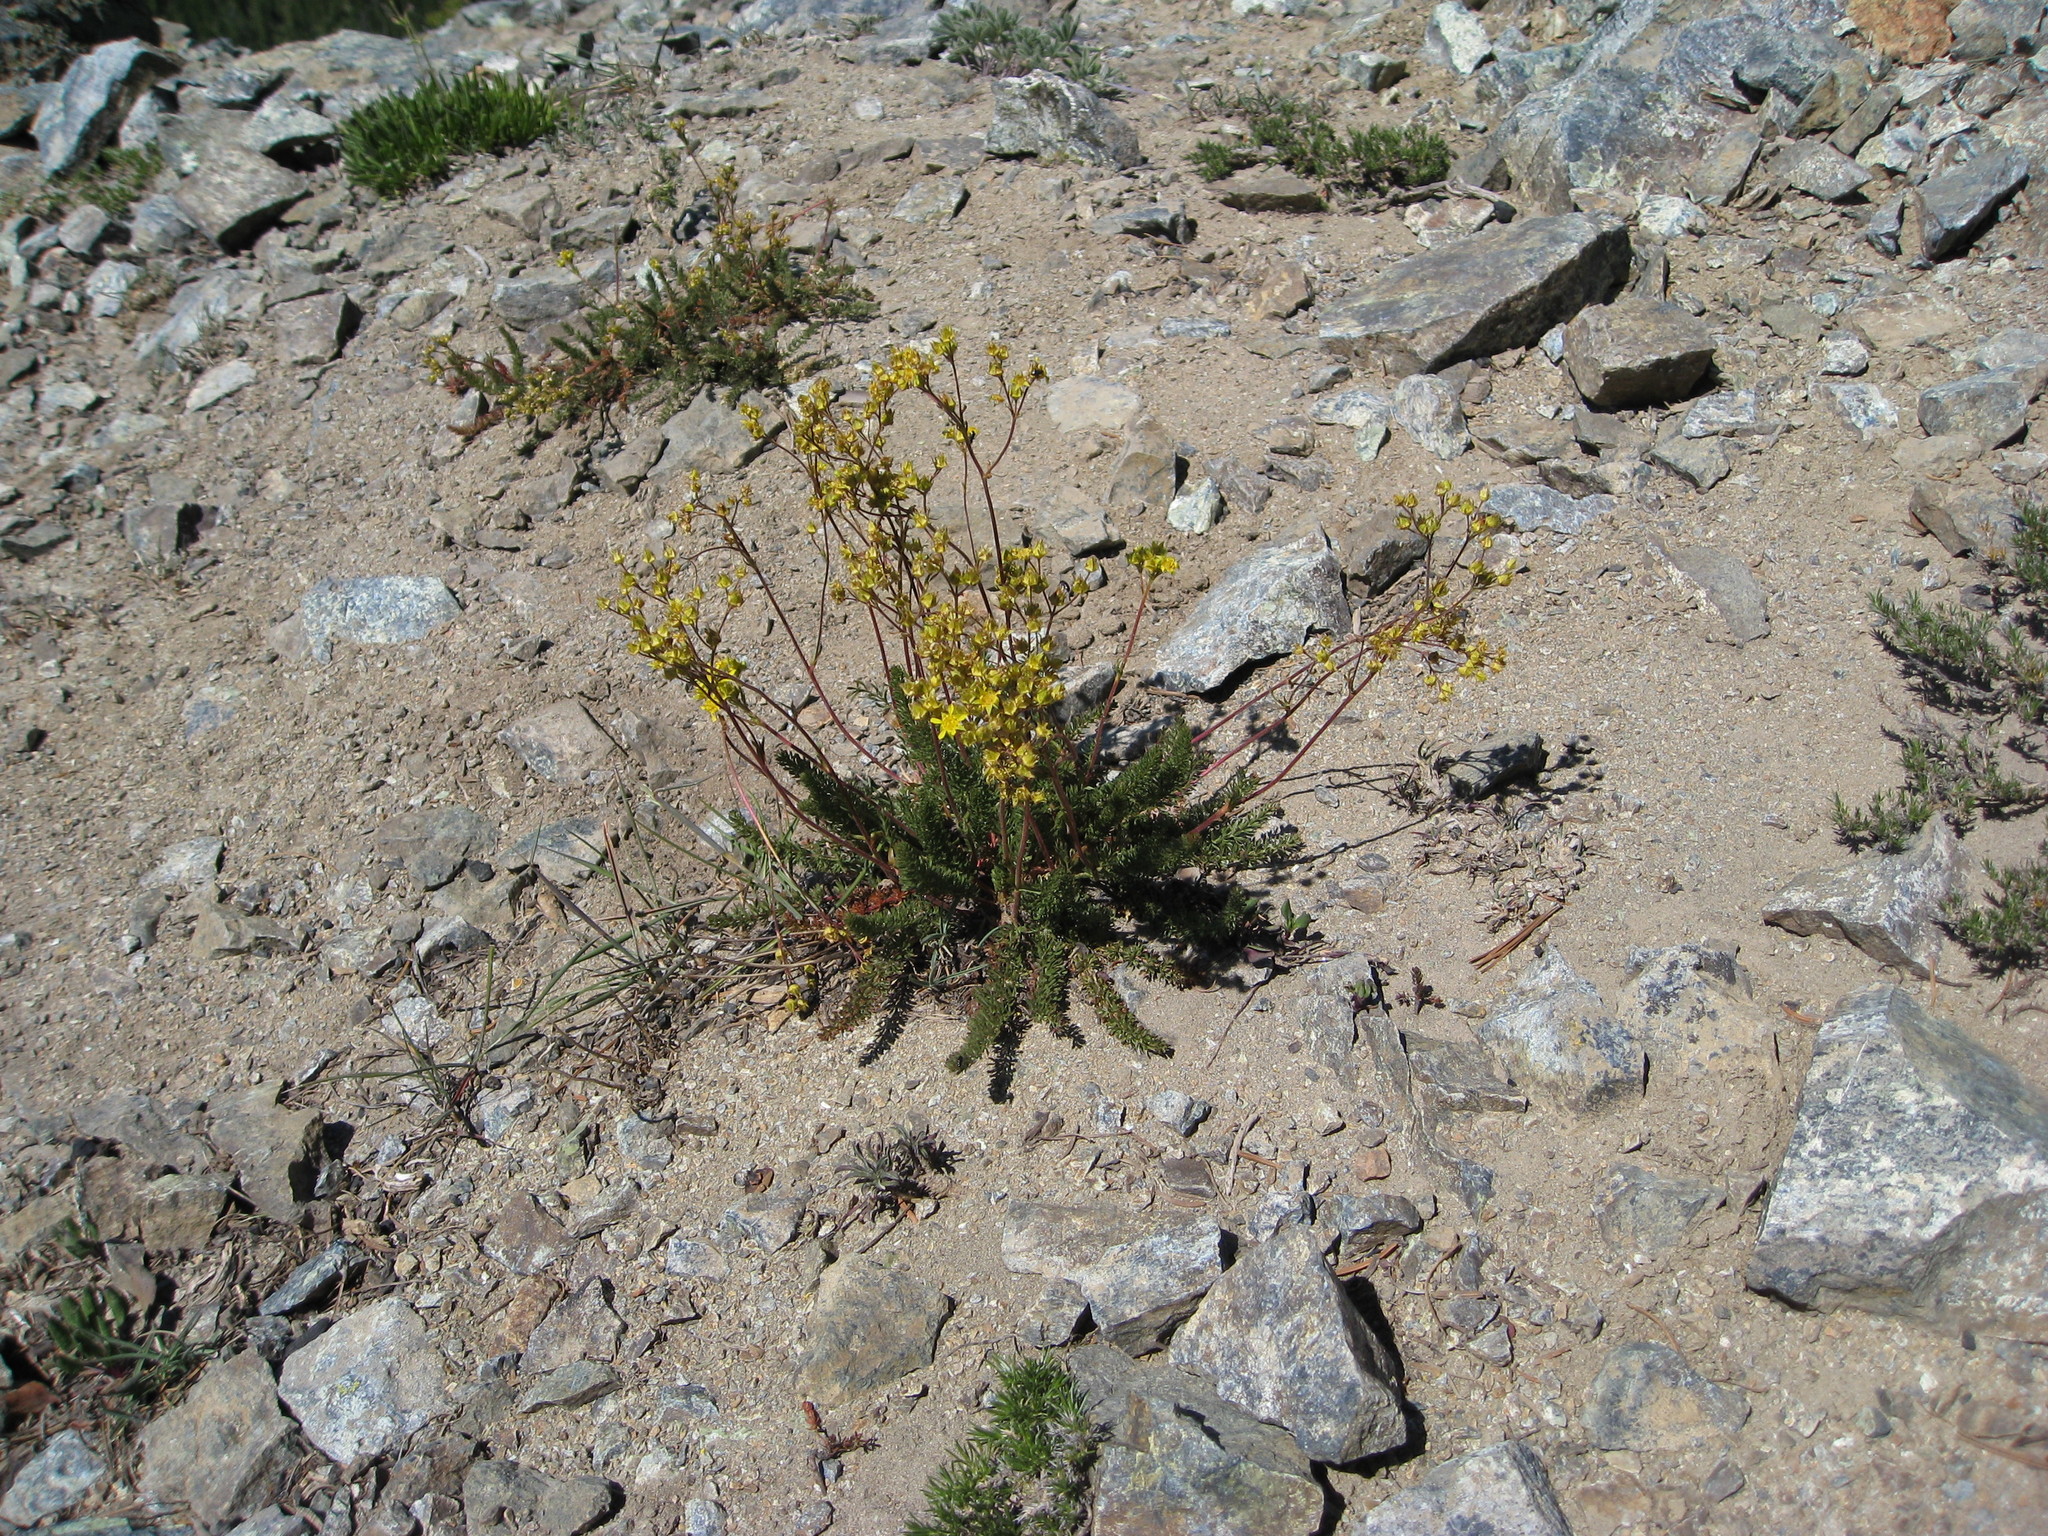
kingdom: Plantae
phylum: Tracheophyta
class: Magnoliopsida
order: Rosales
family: Rosaceae
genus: Potentilla
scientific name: Potentilla tweedyi
